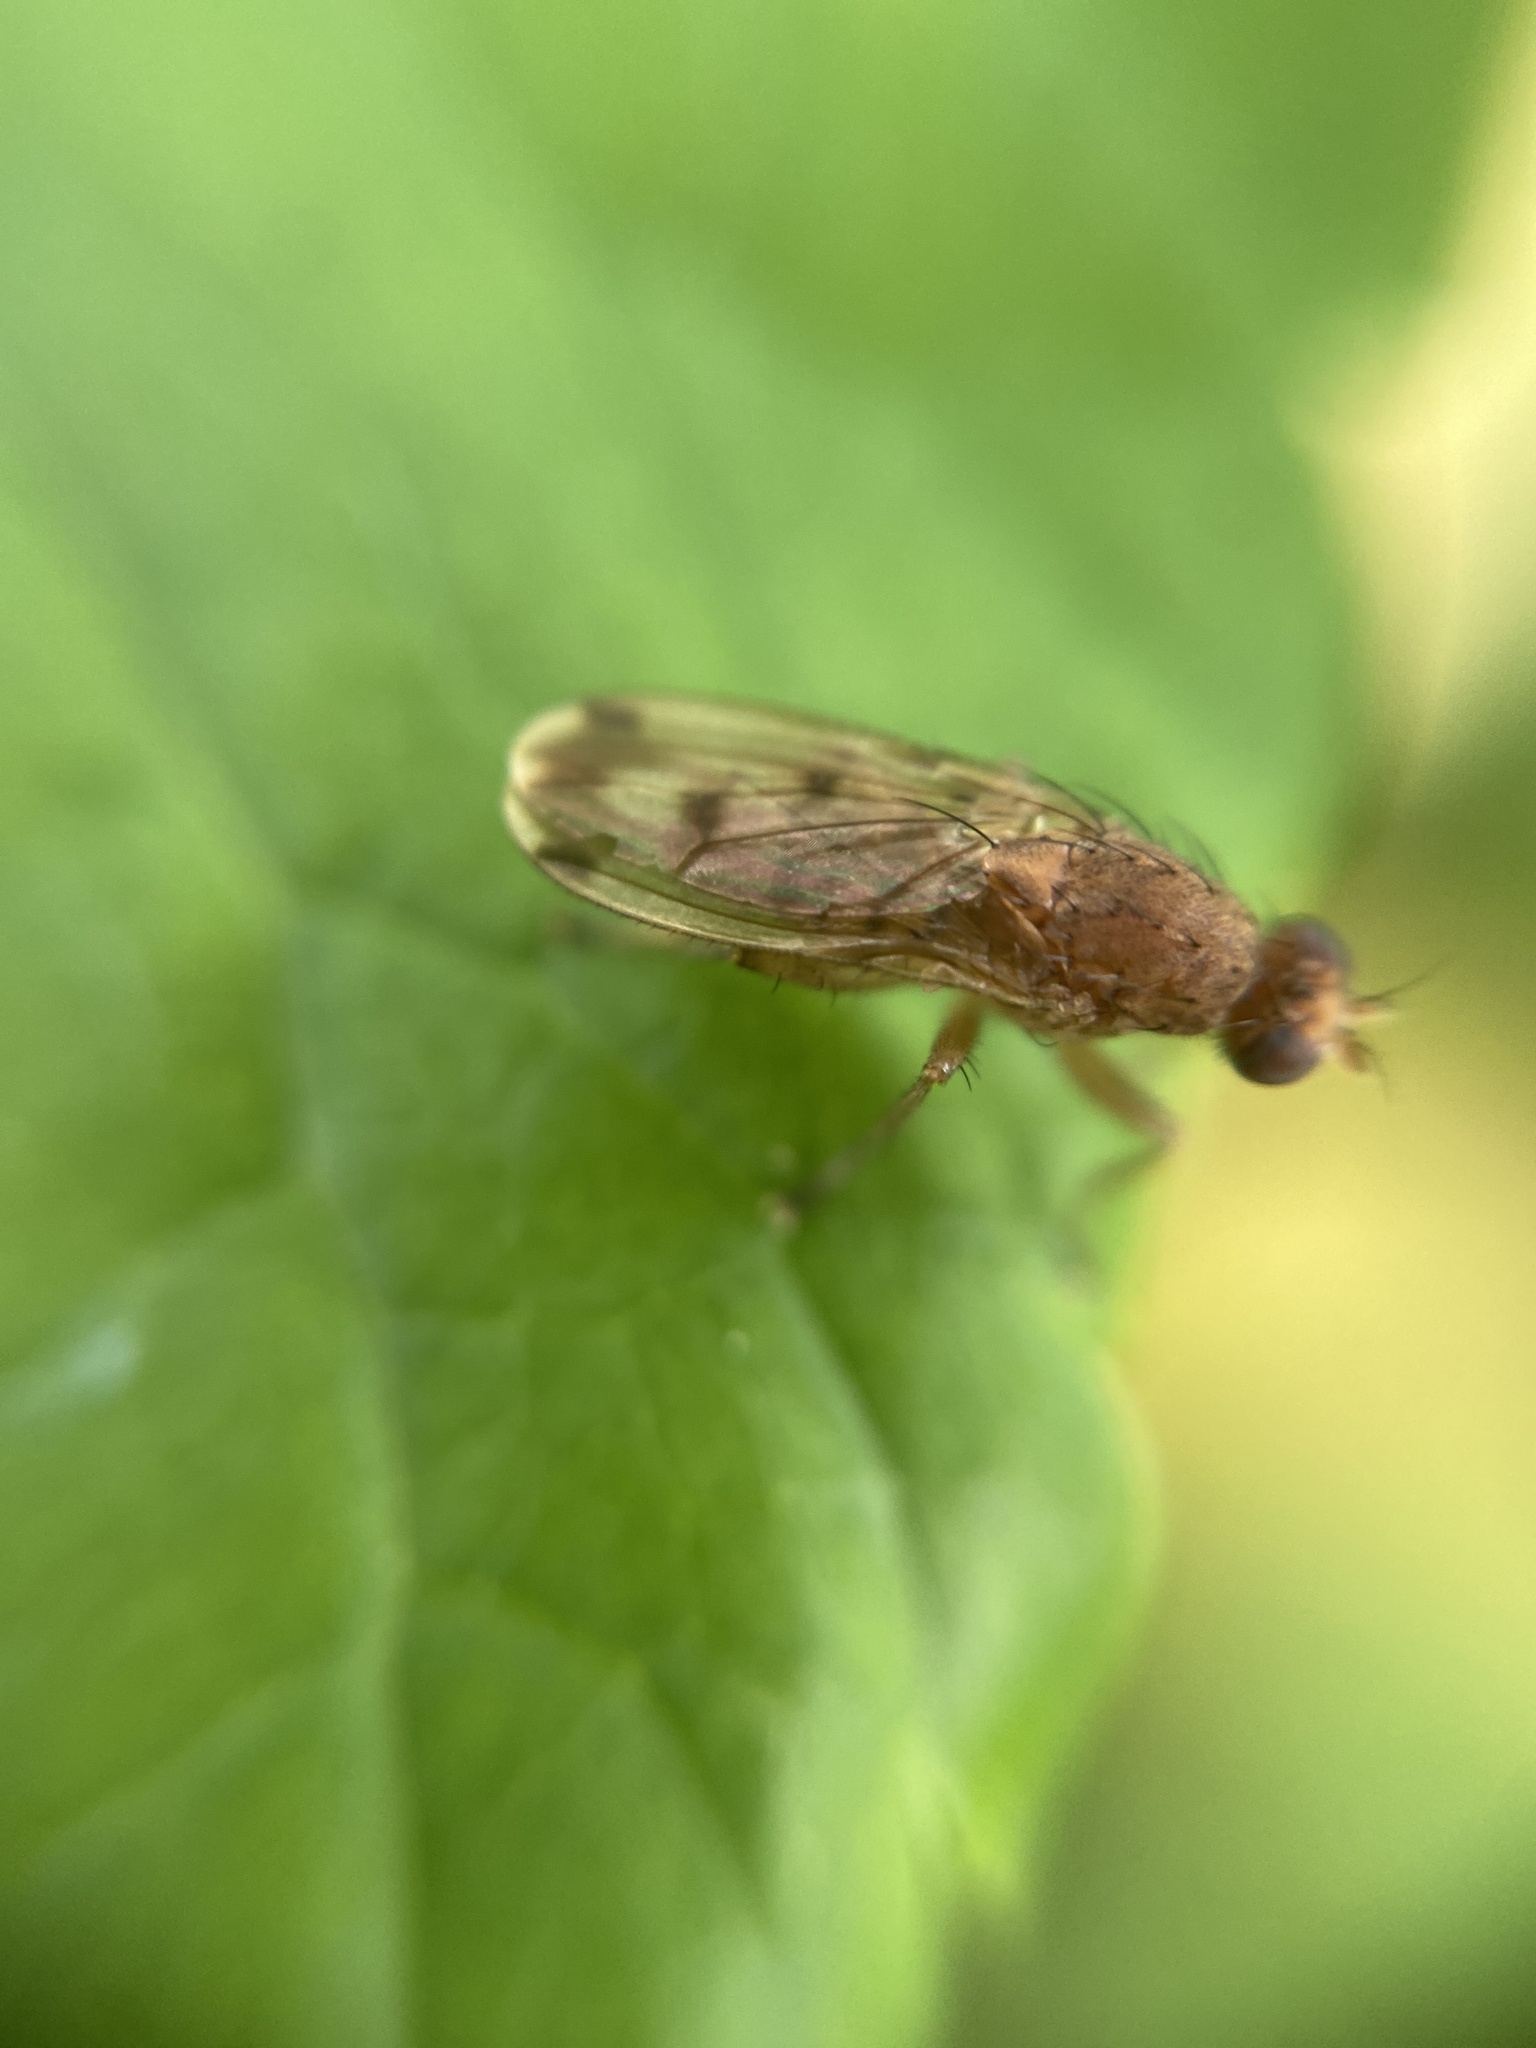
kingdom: Animalia
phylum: Arthropoda
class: Insecta
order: Diptera
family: Heleomyzidae
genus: Suillia
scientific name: Suillia variegata
